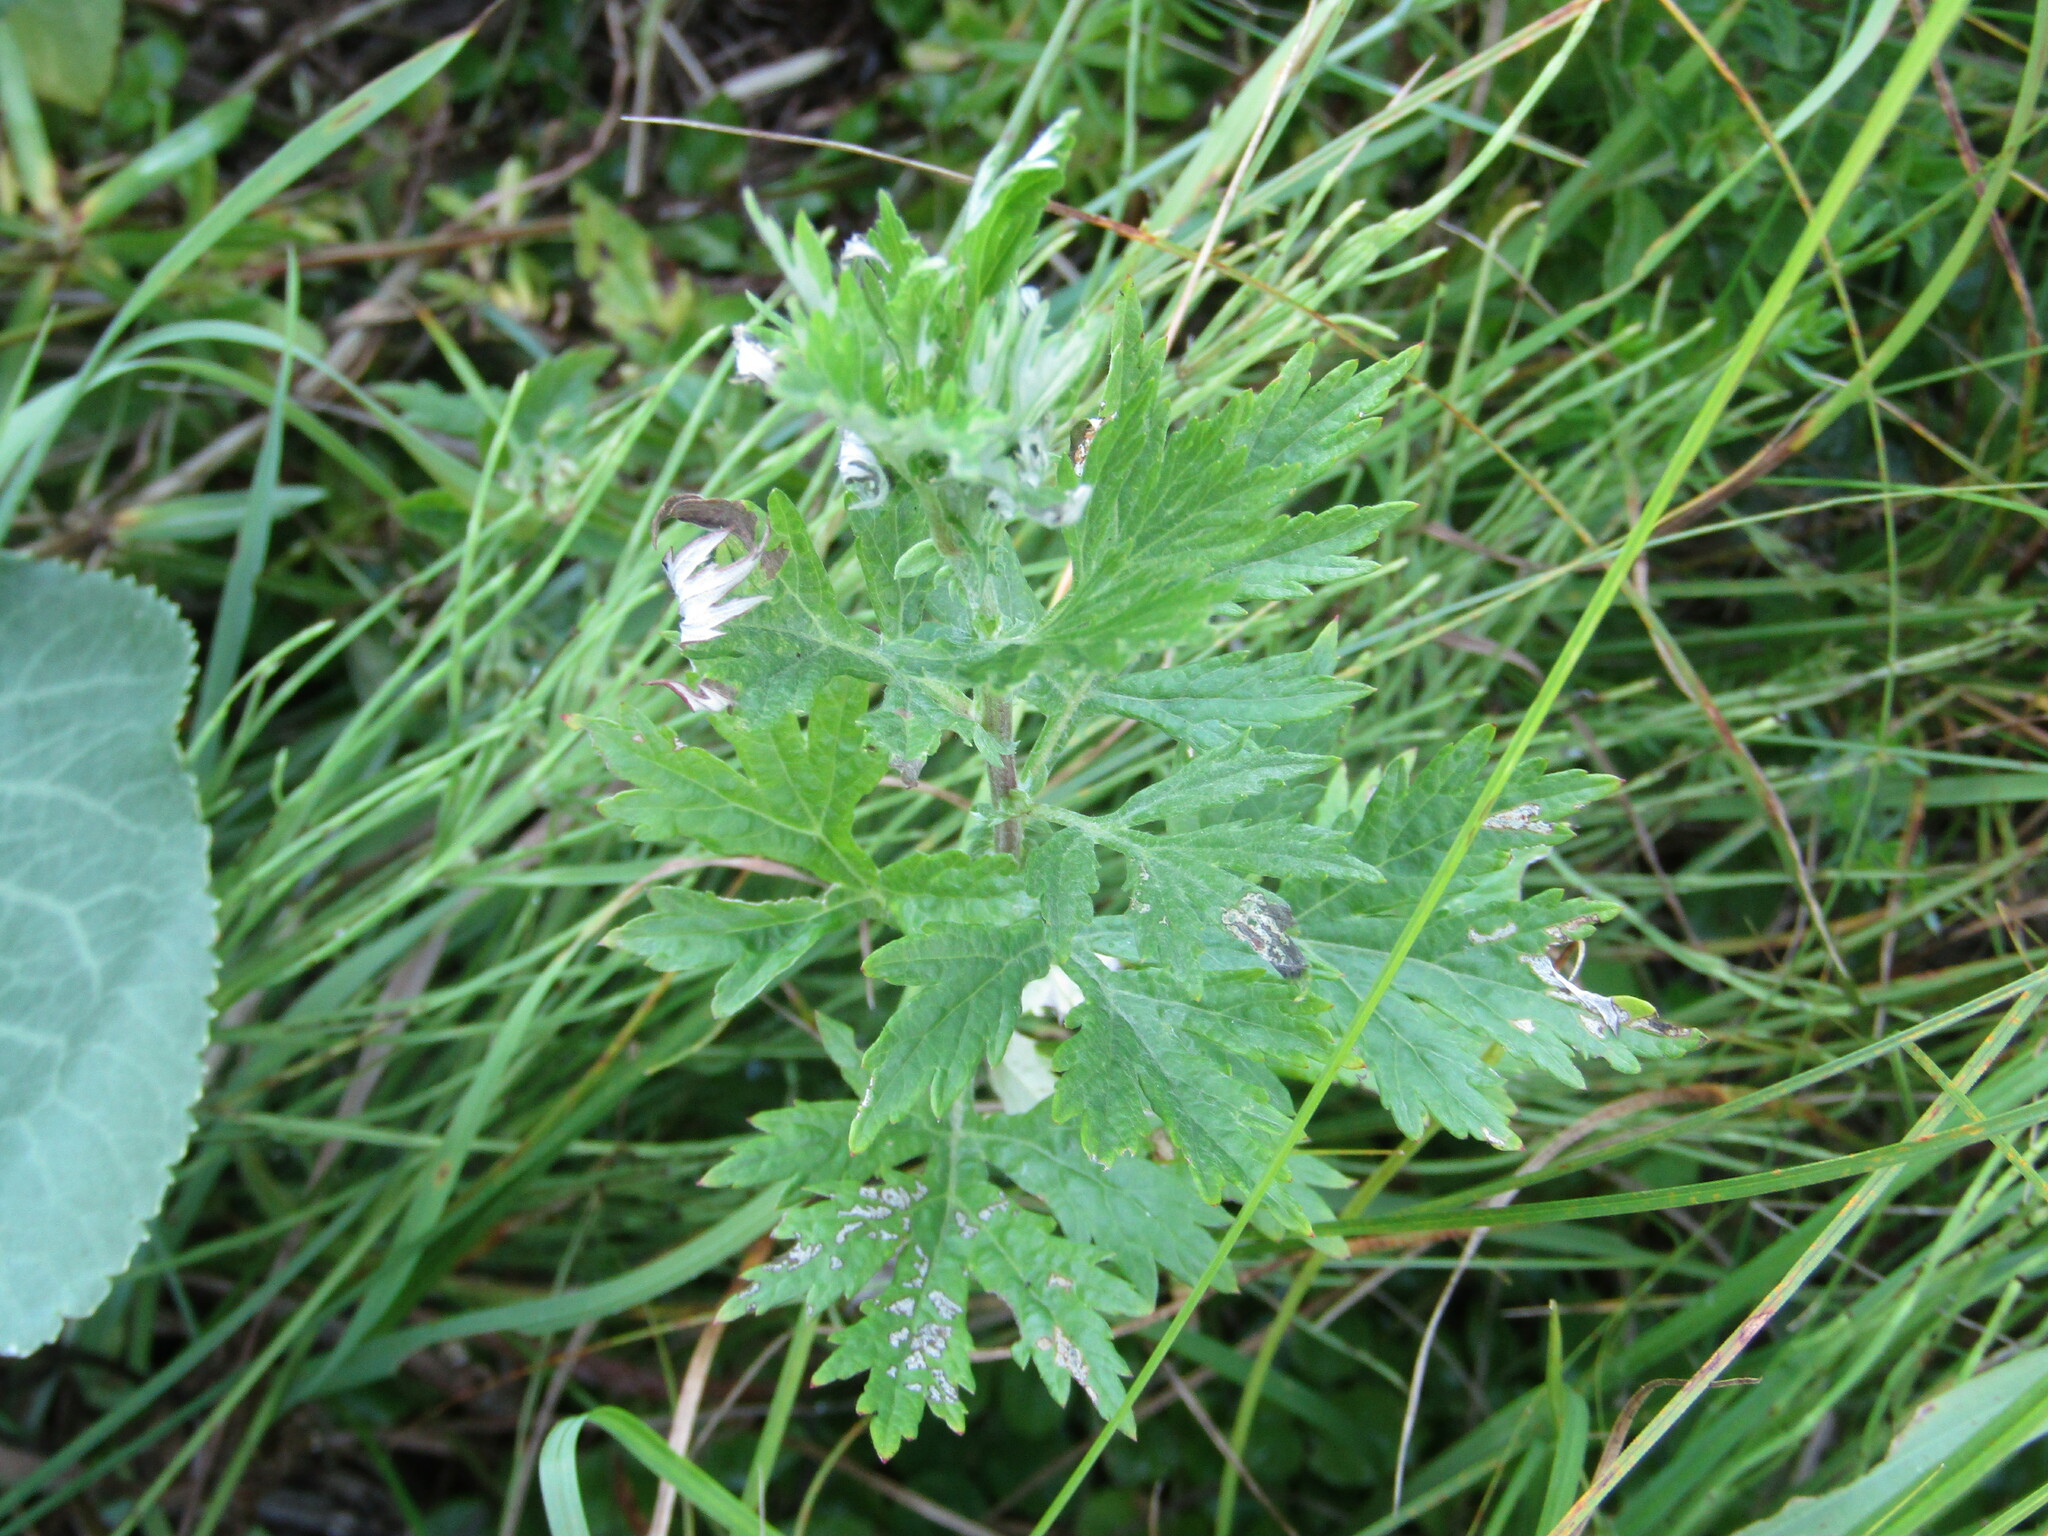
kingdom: Plantae
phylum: Tracheophyta
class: Magnoliopsida
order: Asterales
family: Asteraceae
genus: Artemisia
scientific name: Artemisia vulgaris
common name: Mugwort
